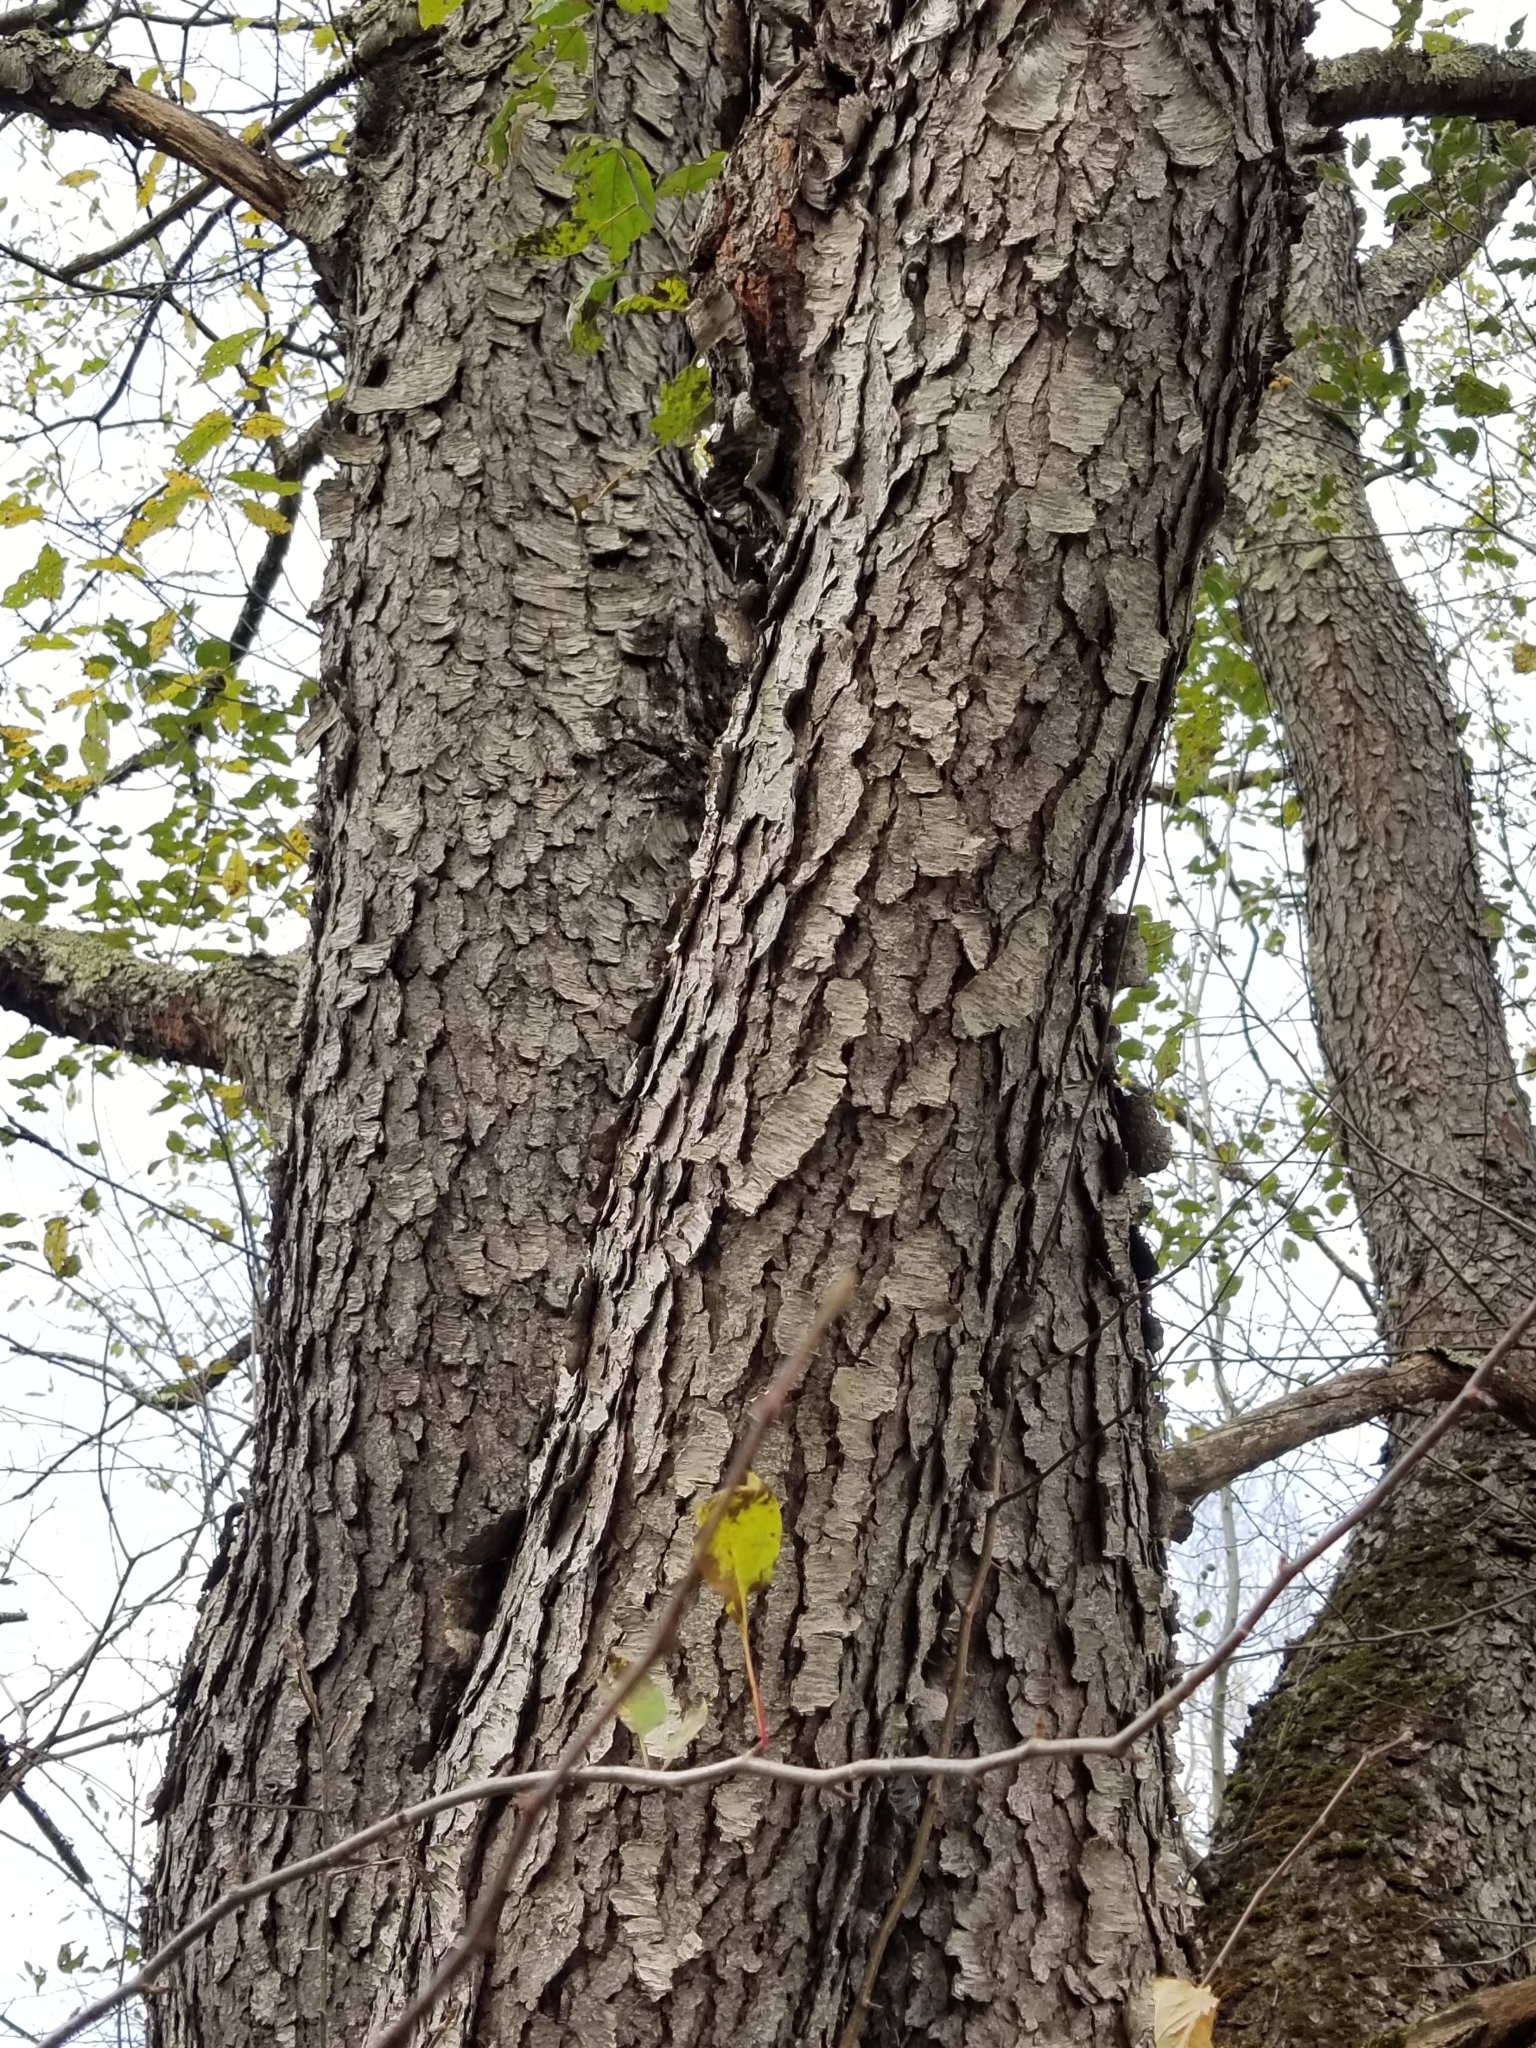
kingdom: Plantae
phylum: Tracheophyta
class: Magnoliopsida
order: Rosales
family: Rosaceae
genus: Prunus
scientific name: Prunus serotina
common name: Black cherry
